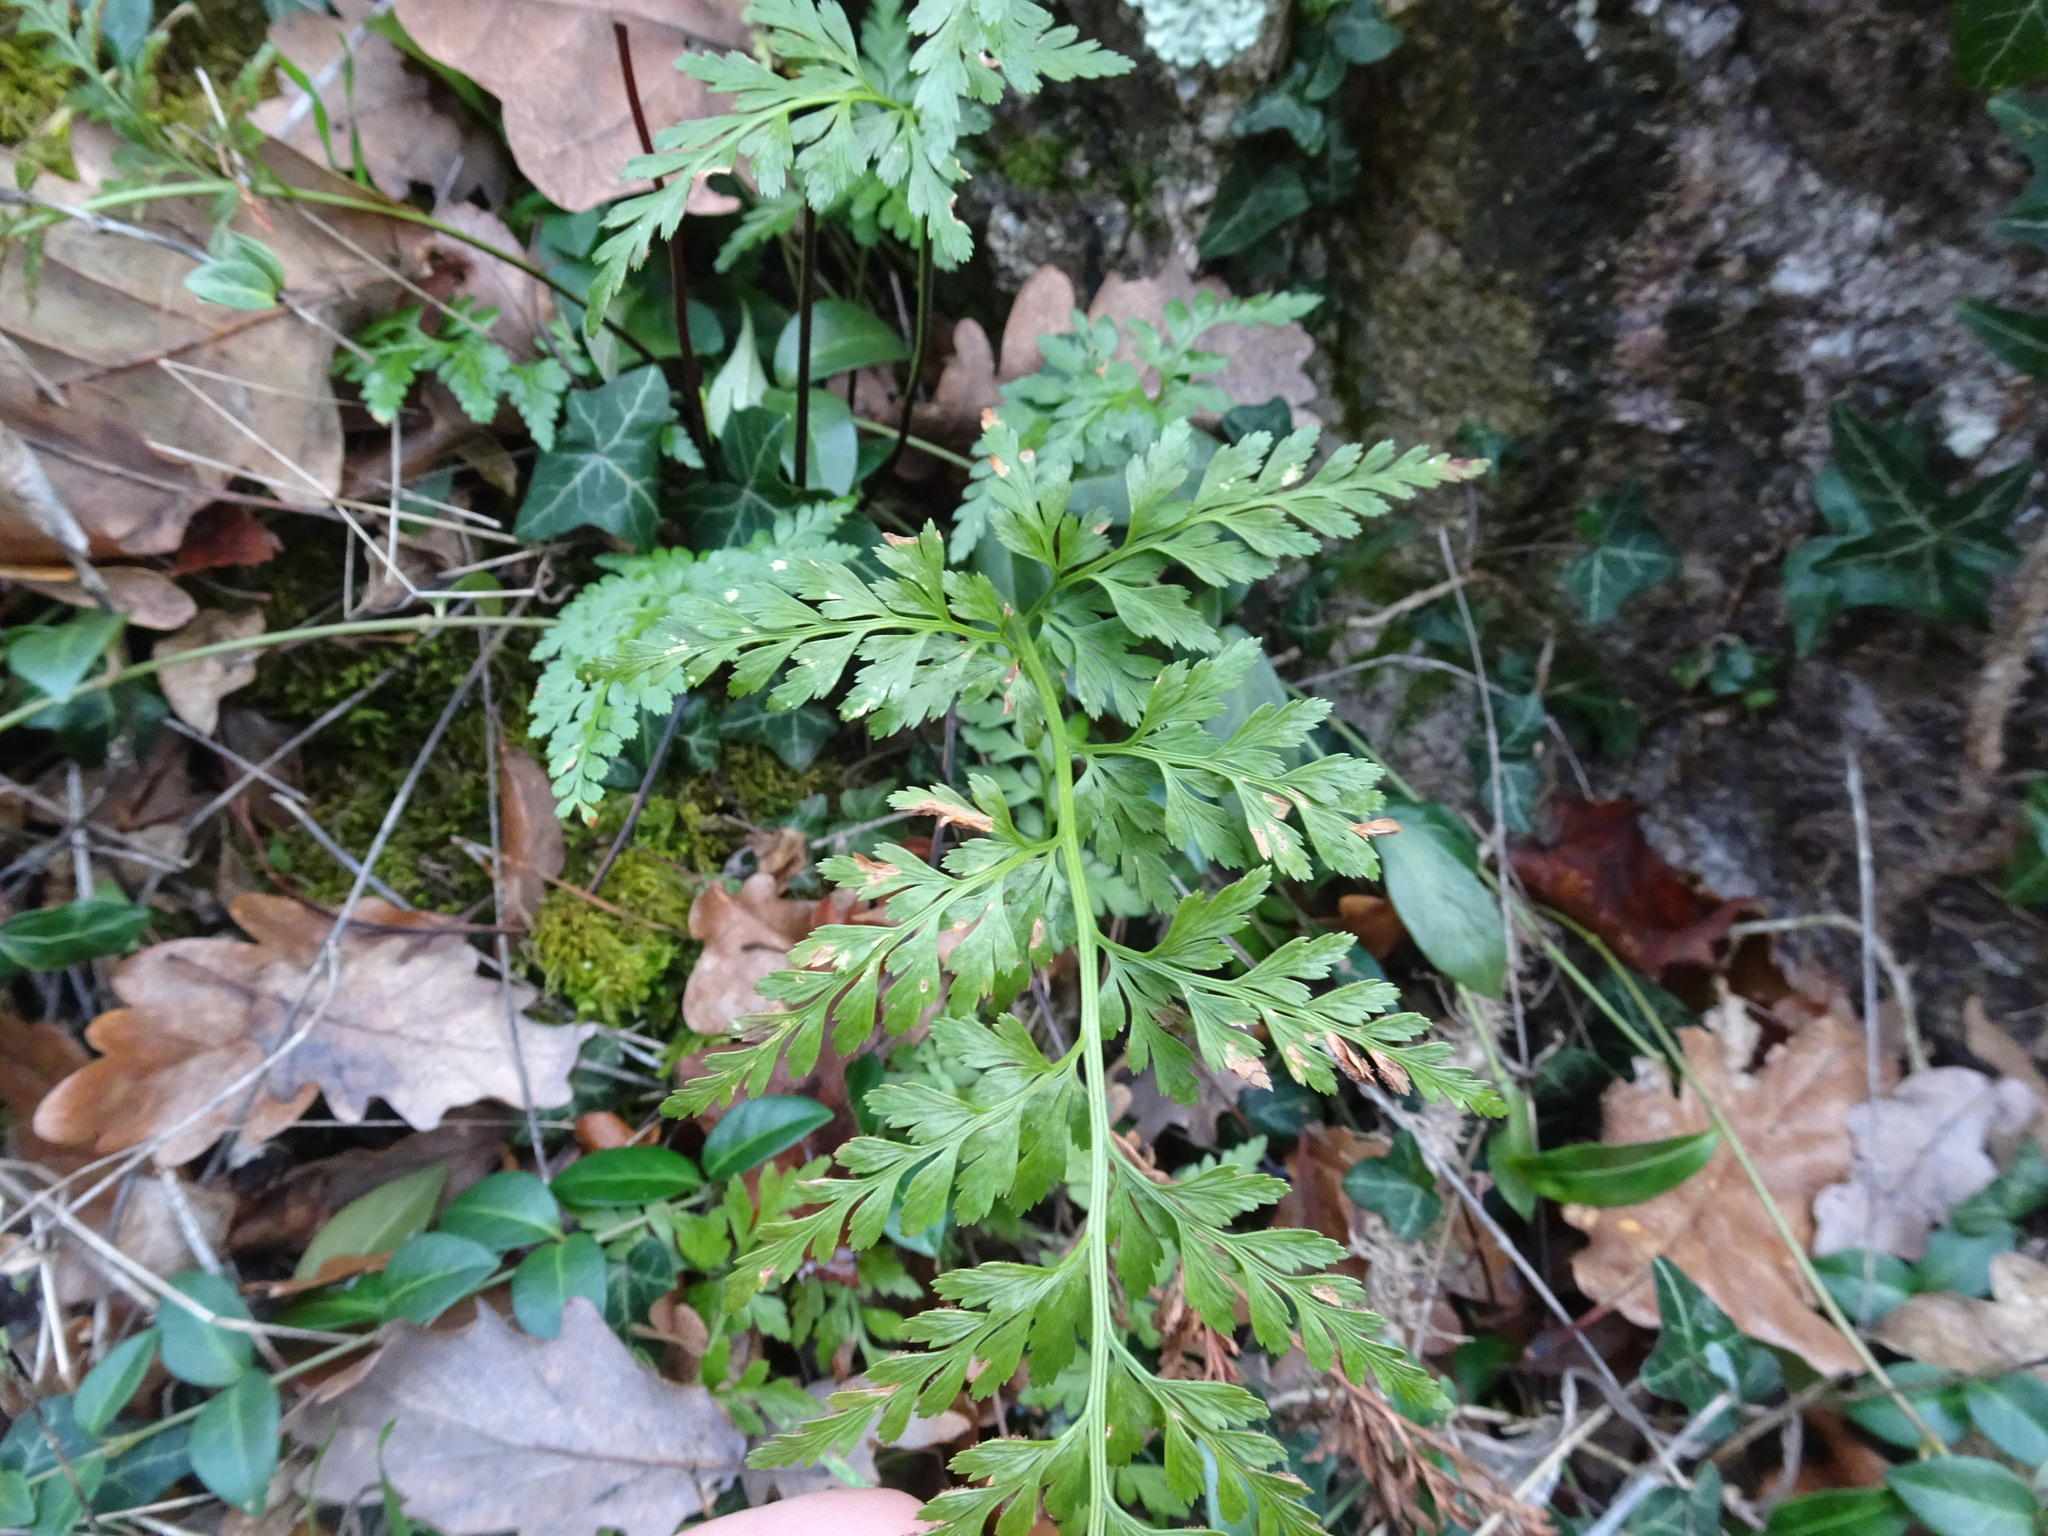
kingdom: Plantae
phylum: Tracheophyta
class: Polypodiopsida
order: Polypodiales
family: Aspleniaceae
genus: Asplenium
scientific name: Asplenium adiantum-nigrum
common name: Black spleenwort
